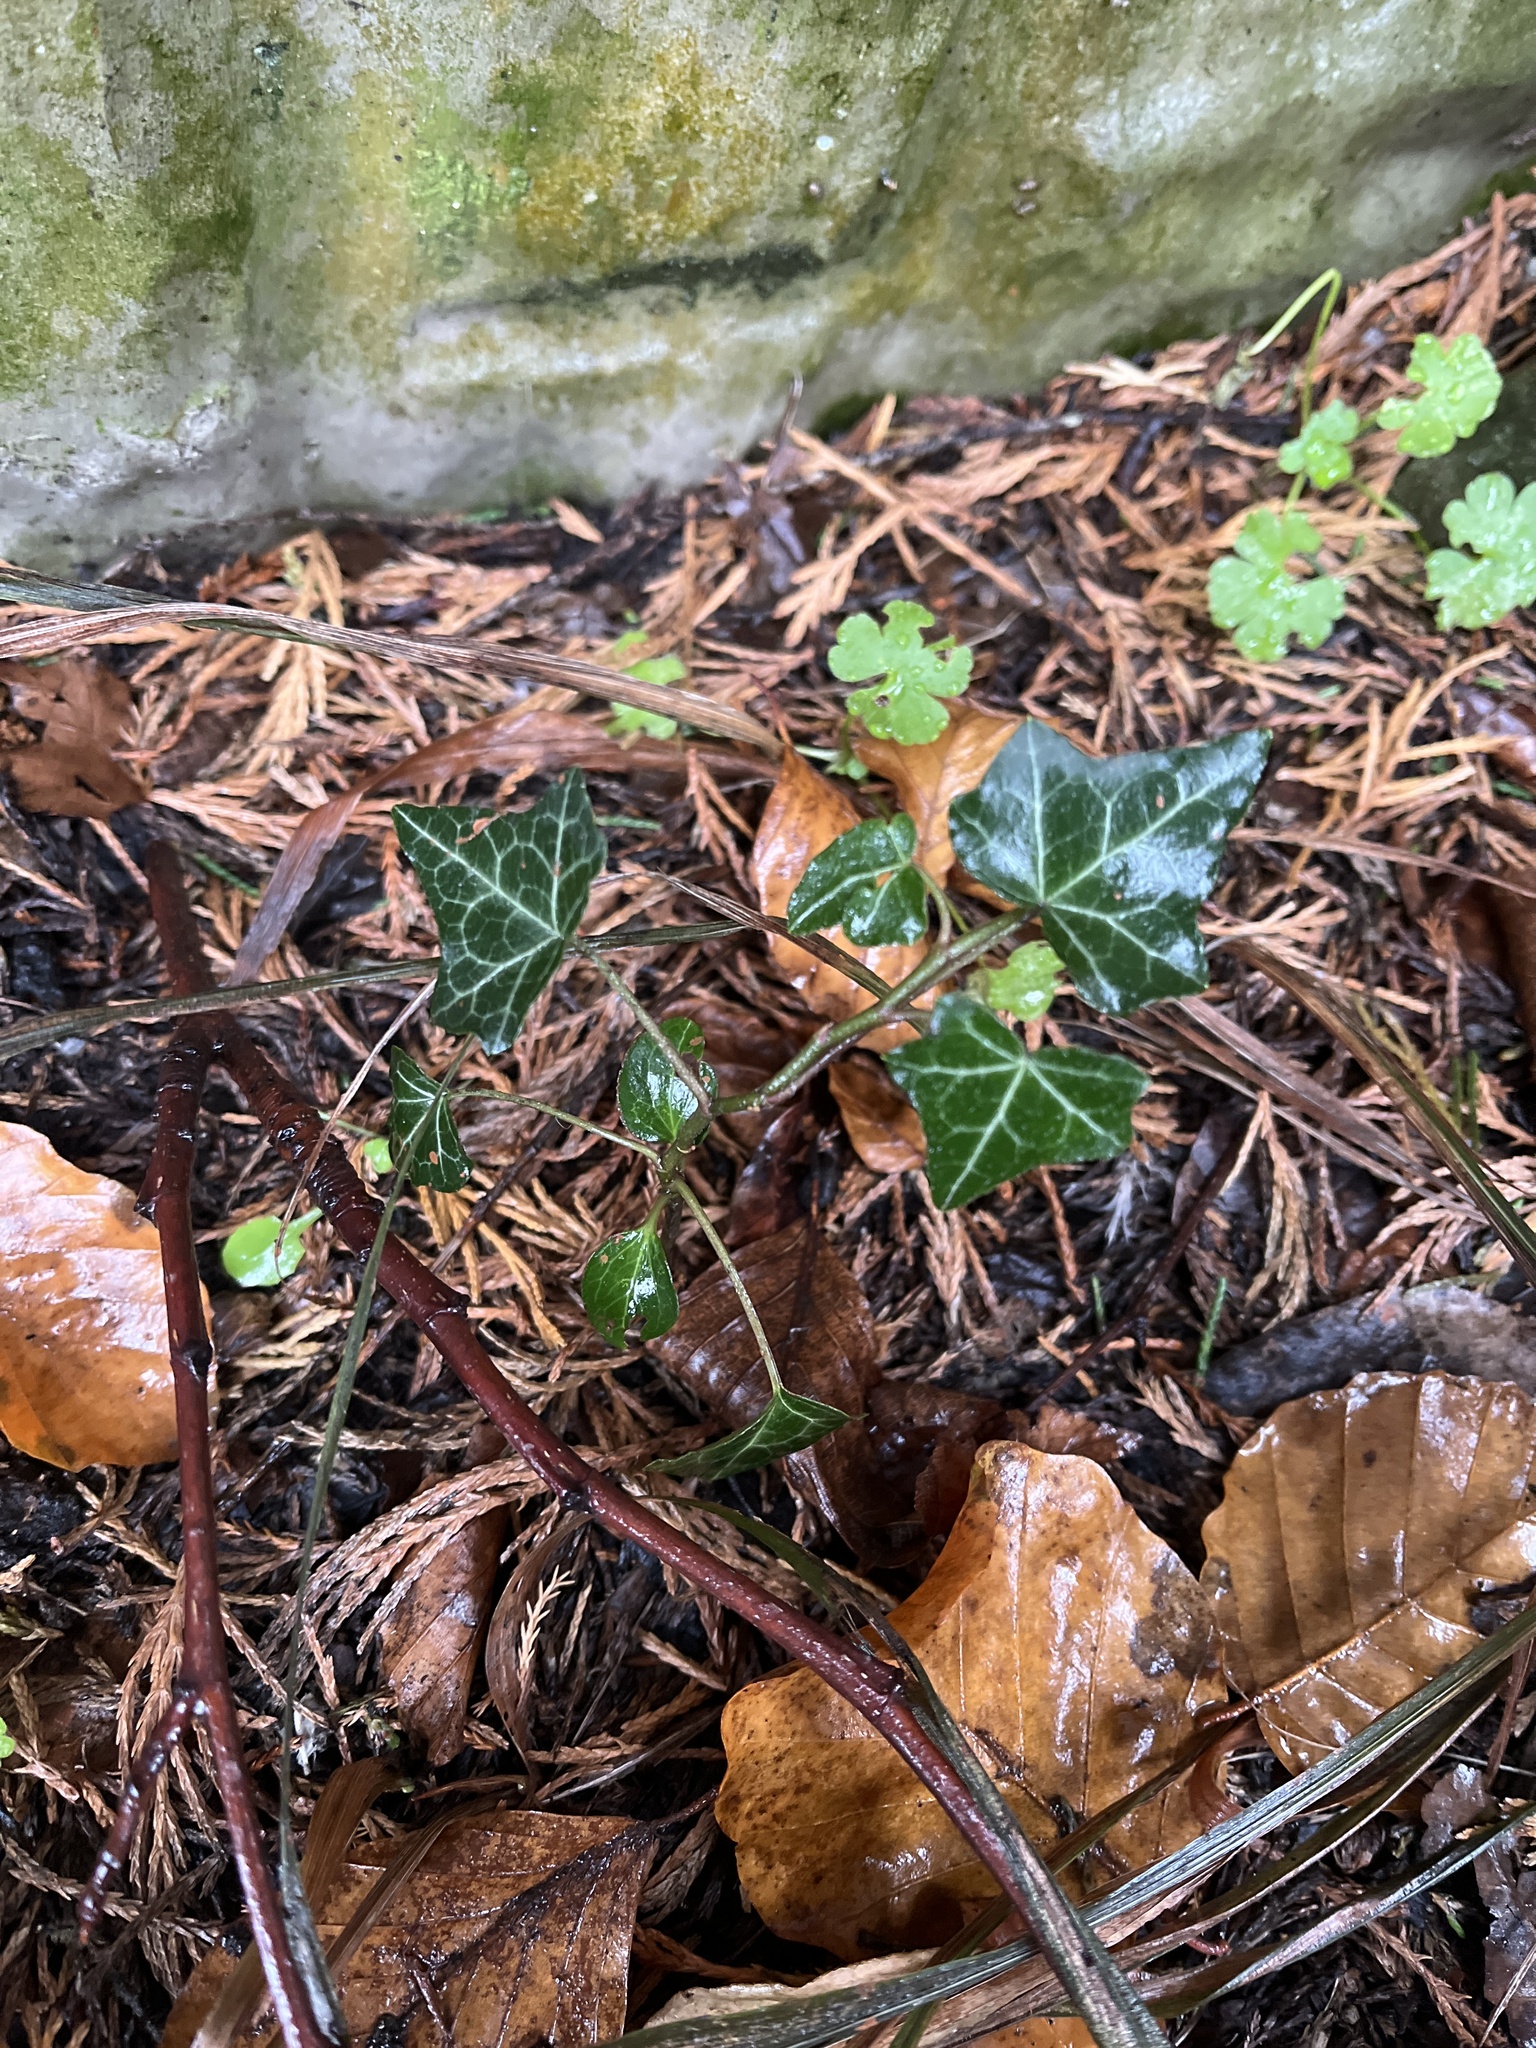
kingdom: Plantae
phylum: Tracheophyta
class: Magnoliopsida
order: Apiales
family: Araliaceae
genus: Hedera
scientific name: Hedera helix
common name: Ivy
